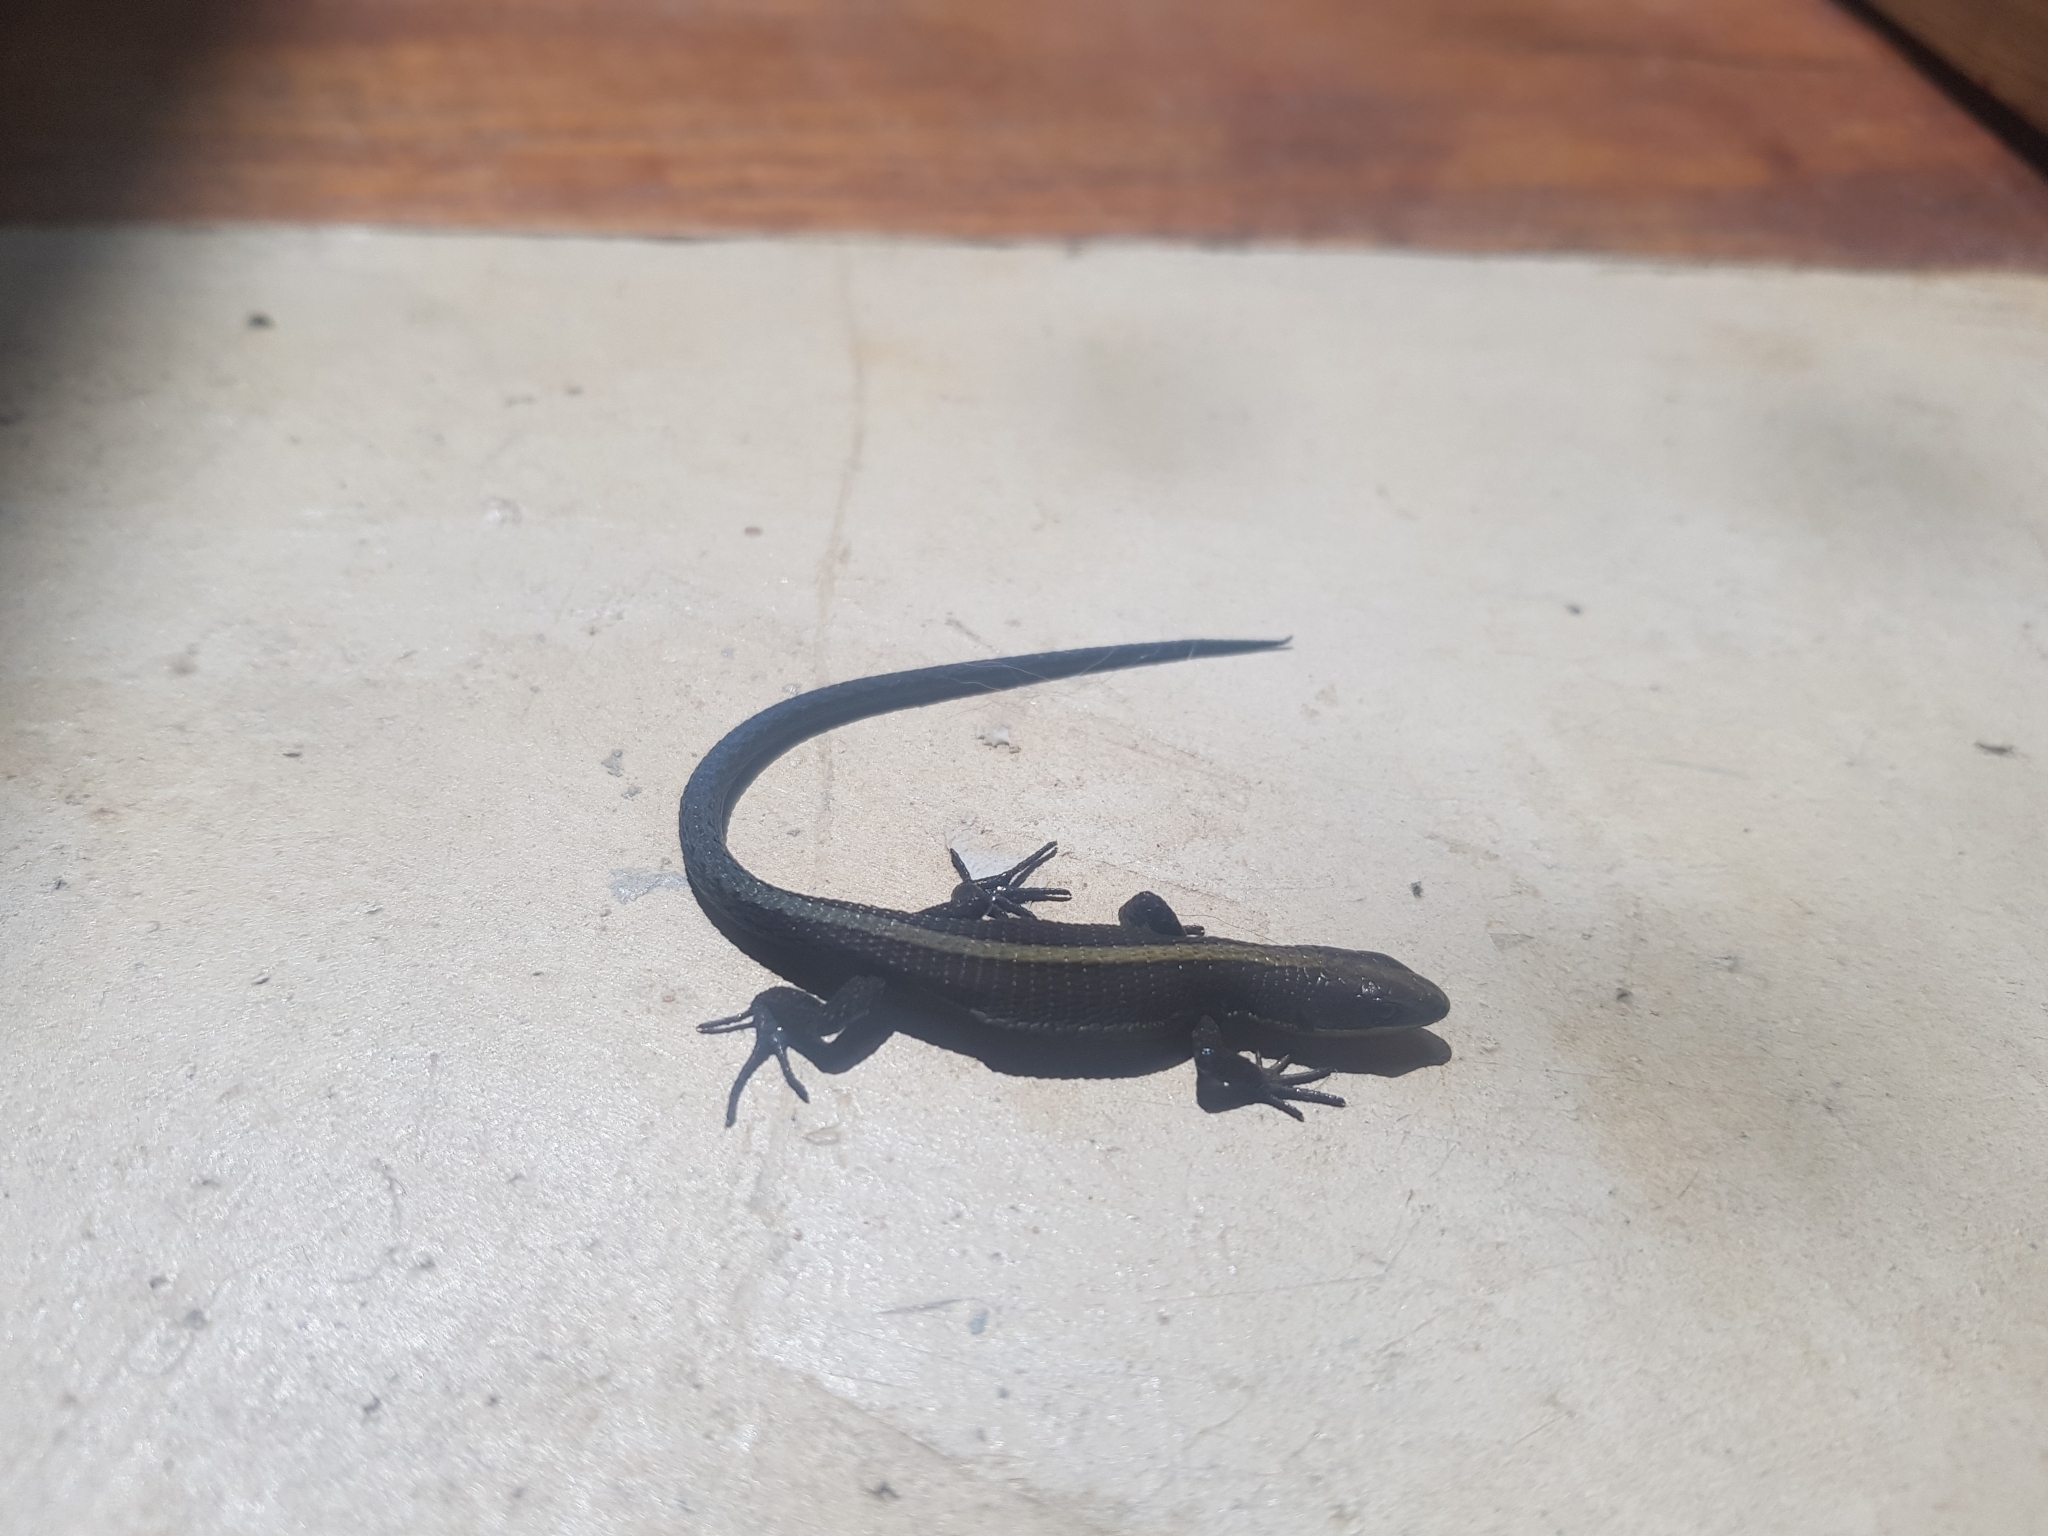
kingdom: Animalia
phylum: Chordata
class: Squamata
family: Gymnophthalmidae
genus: Pholidobolus
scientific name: Pholidobolus vertebralis
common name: Brown prionodactylus
